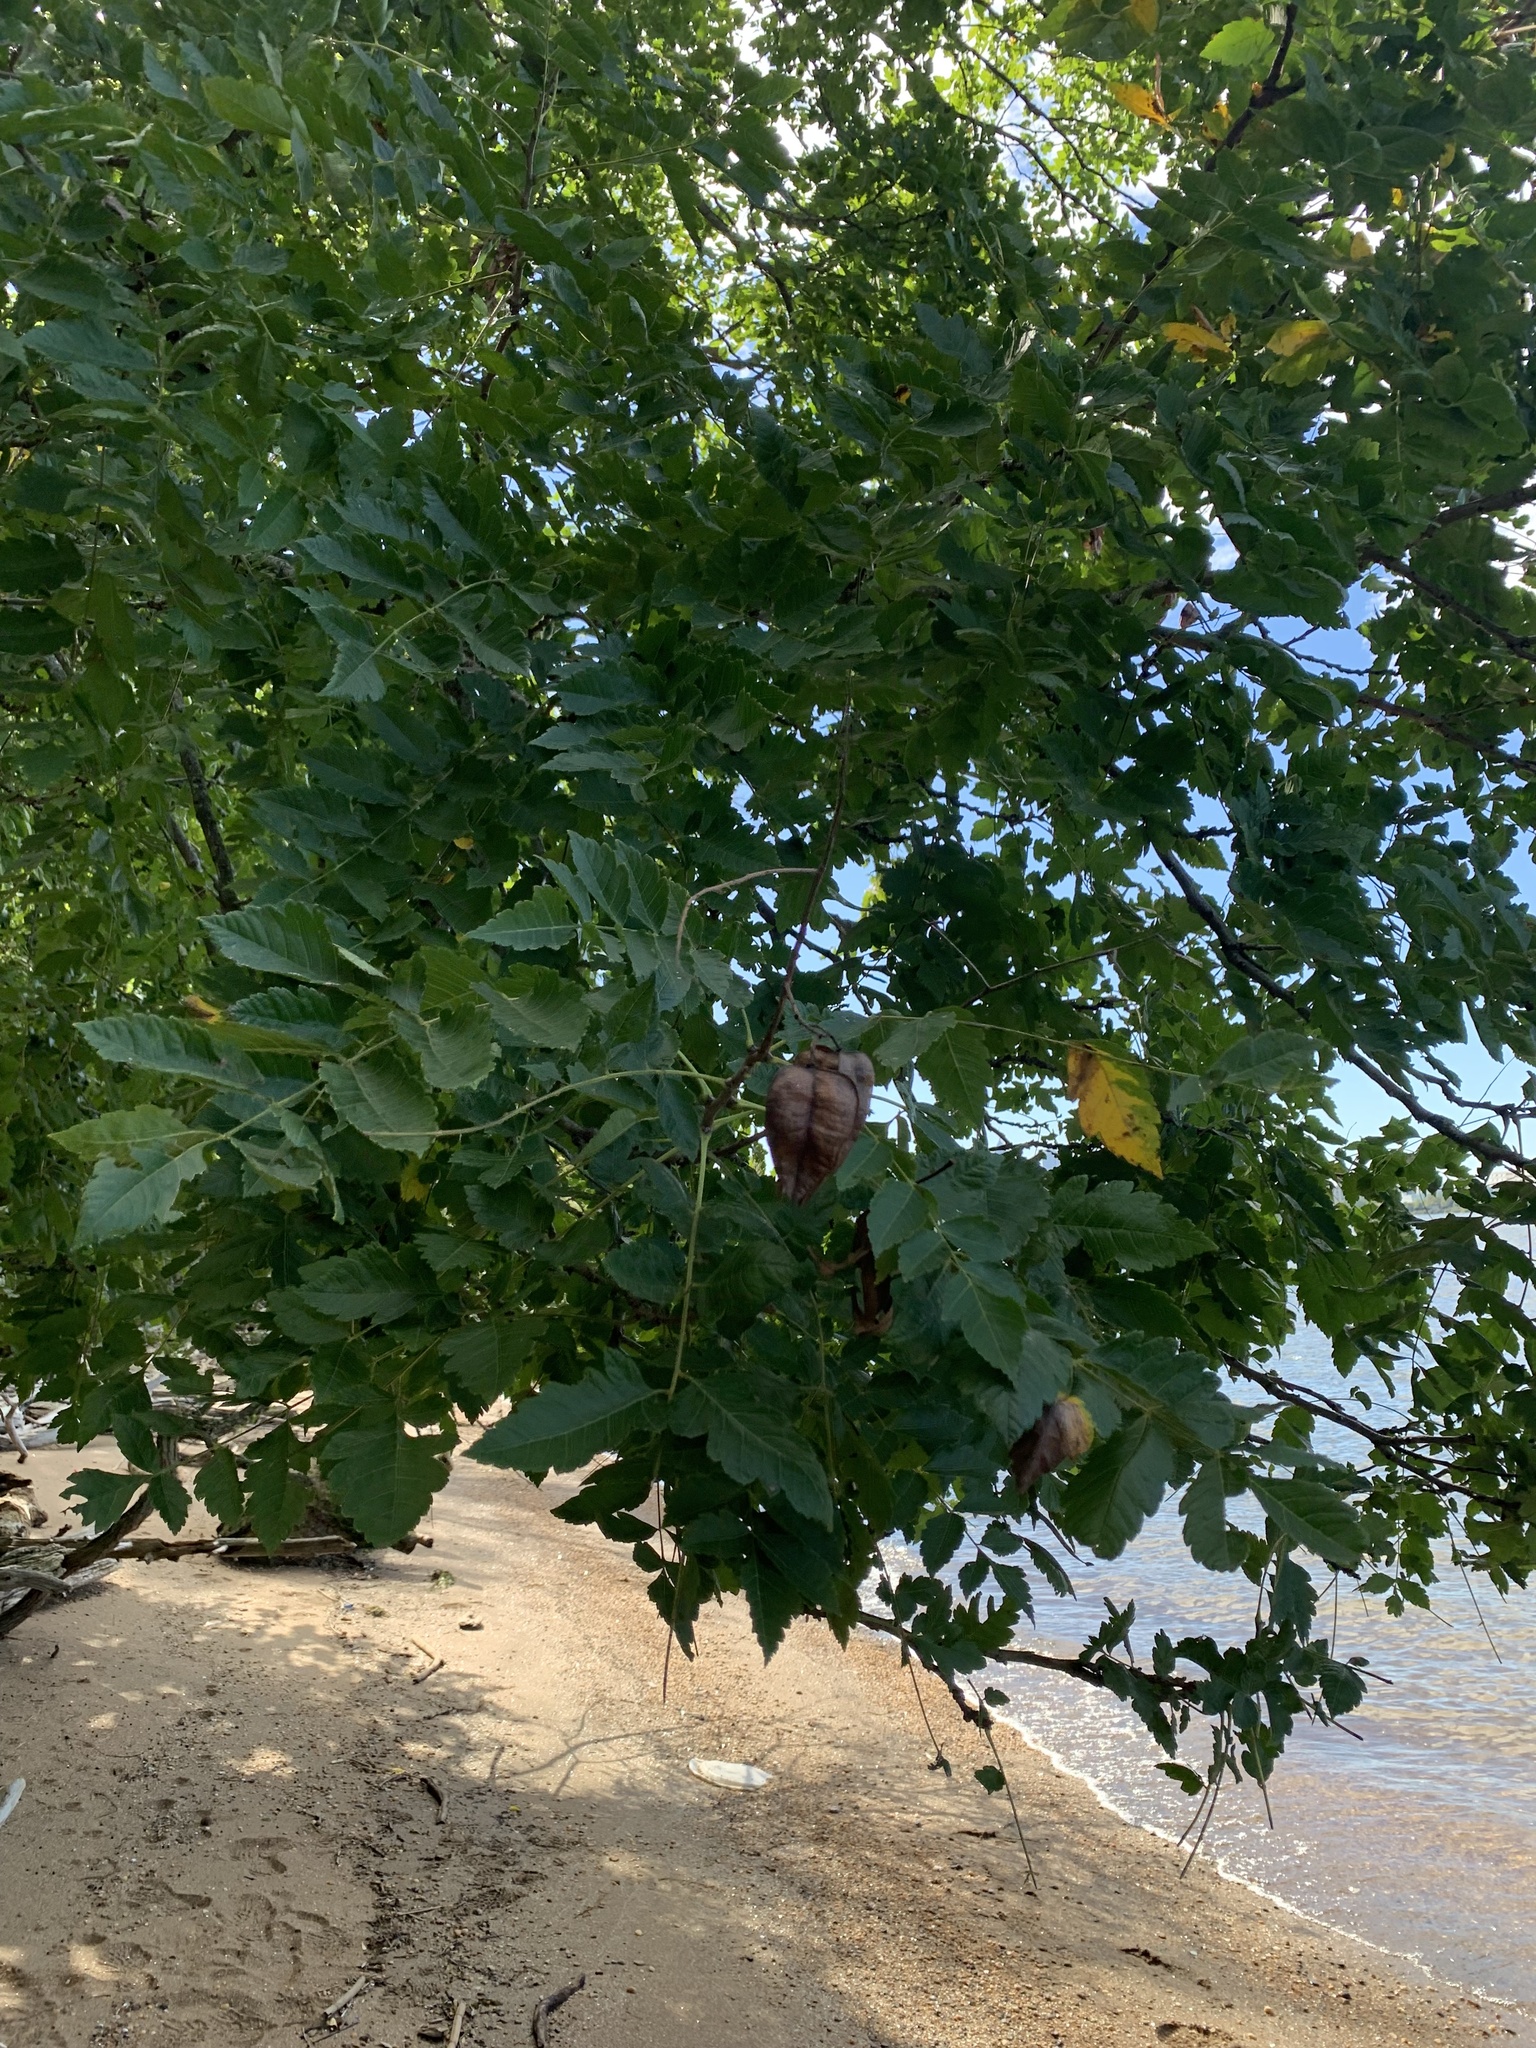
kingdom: Plantae
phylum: Tracheophyta
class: Magnoliopsida
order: Sapindales
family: Sapindaceae
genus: Koelreuteria
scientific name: Koelreuteria paniculata
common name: Pride-of-india
